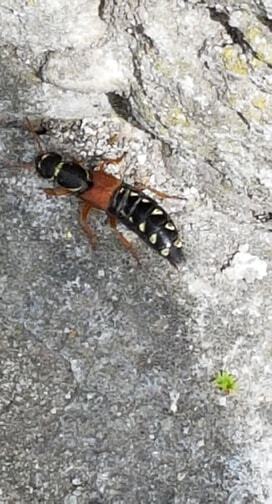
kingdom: Animalia
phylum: Arthropoda
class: Insecta
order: Coleoptera
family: Staphylinidae
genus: Staphylinus
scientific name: Staphylinus caesareus
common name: Staph beetle
